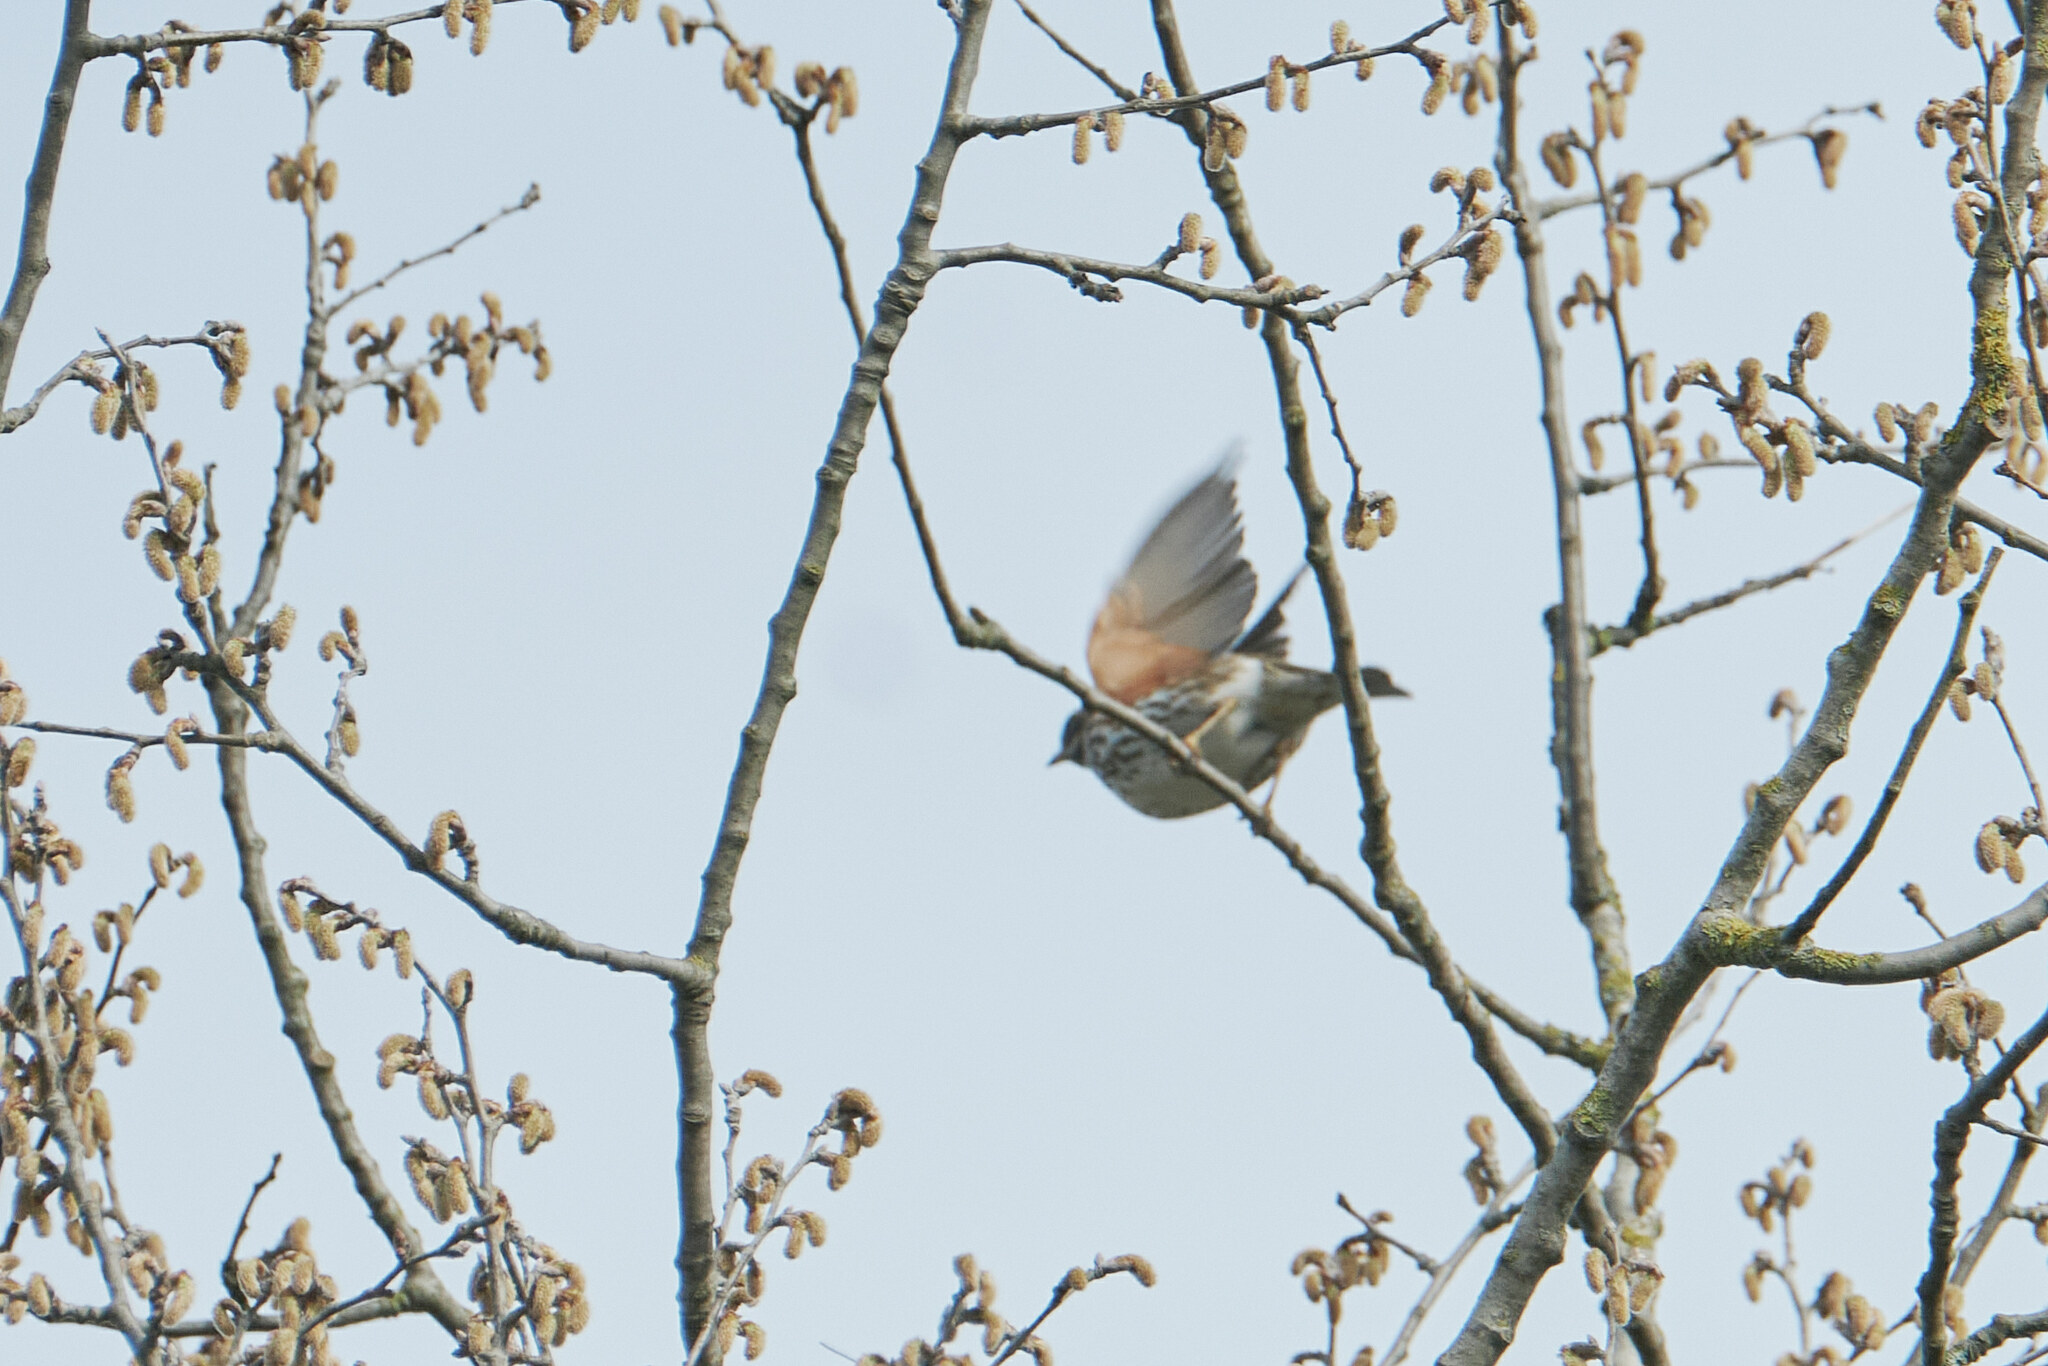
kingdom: Animalia
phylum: Chordata
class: Aves
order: Passeriformes
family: Turdidae
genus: Turdus
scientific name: Turdus iliacus
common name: Redwing
